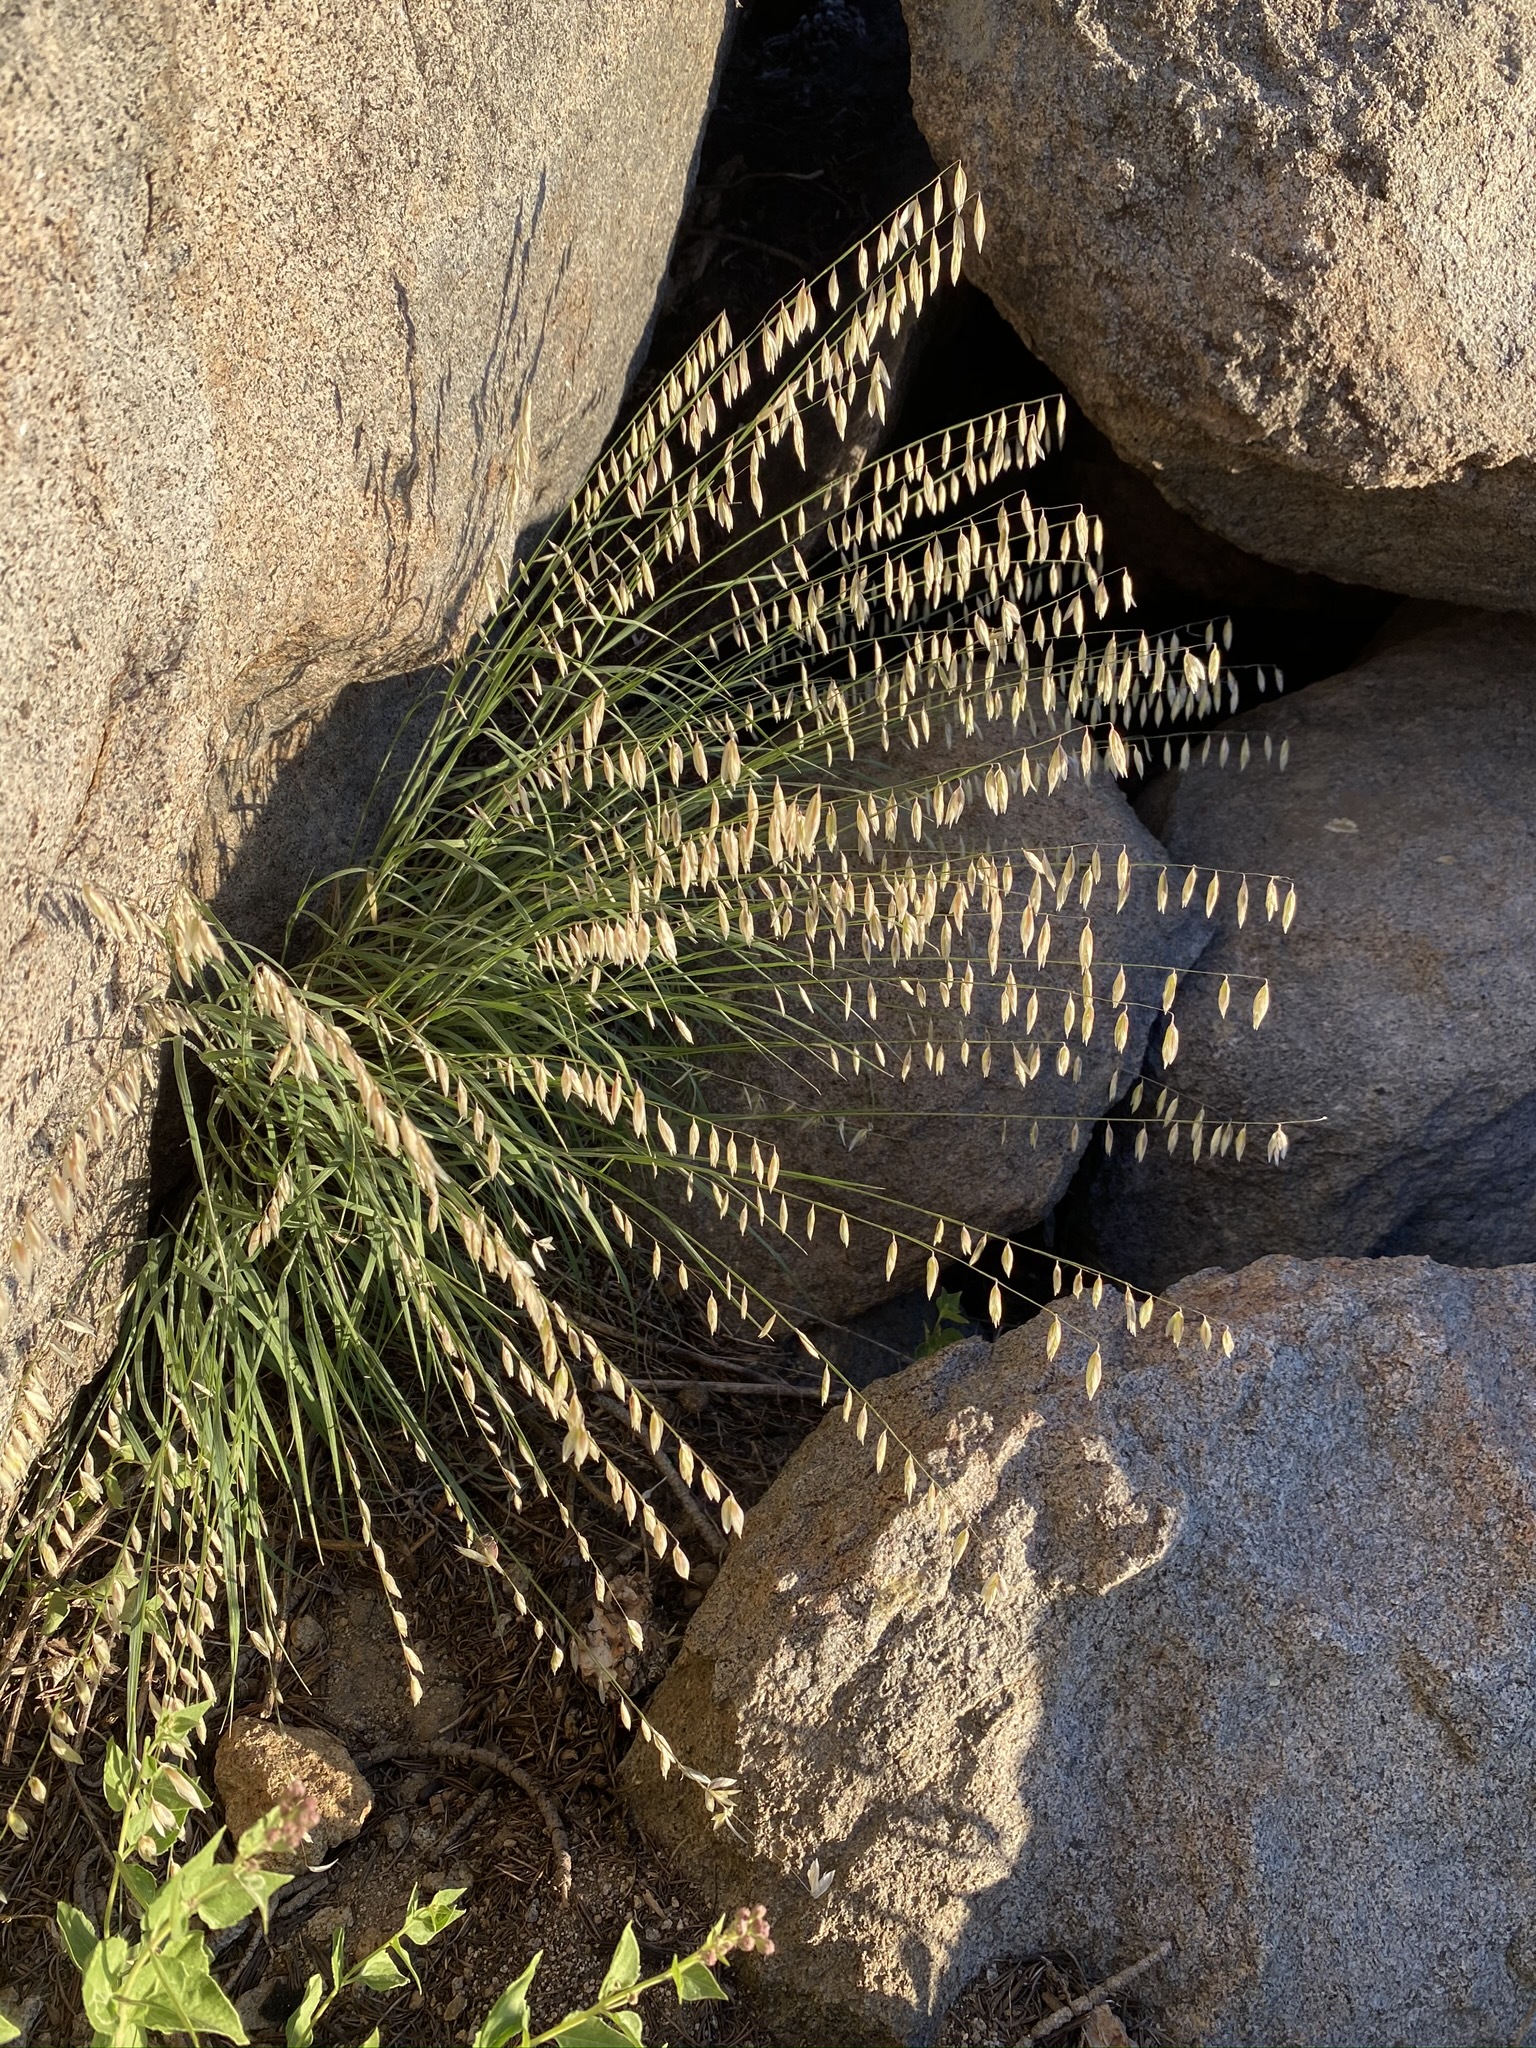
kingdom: Plantae
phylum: Tracheophyta
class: Liliopsida
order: Poales
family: Poaceae
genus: Melica
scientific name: Melica stricta
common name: Rock melic
